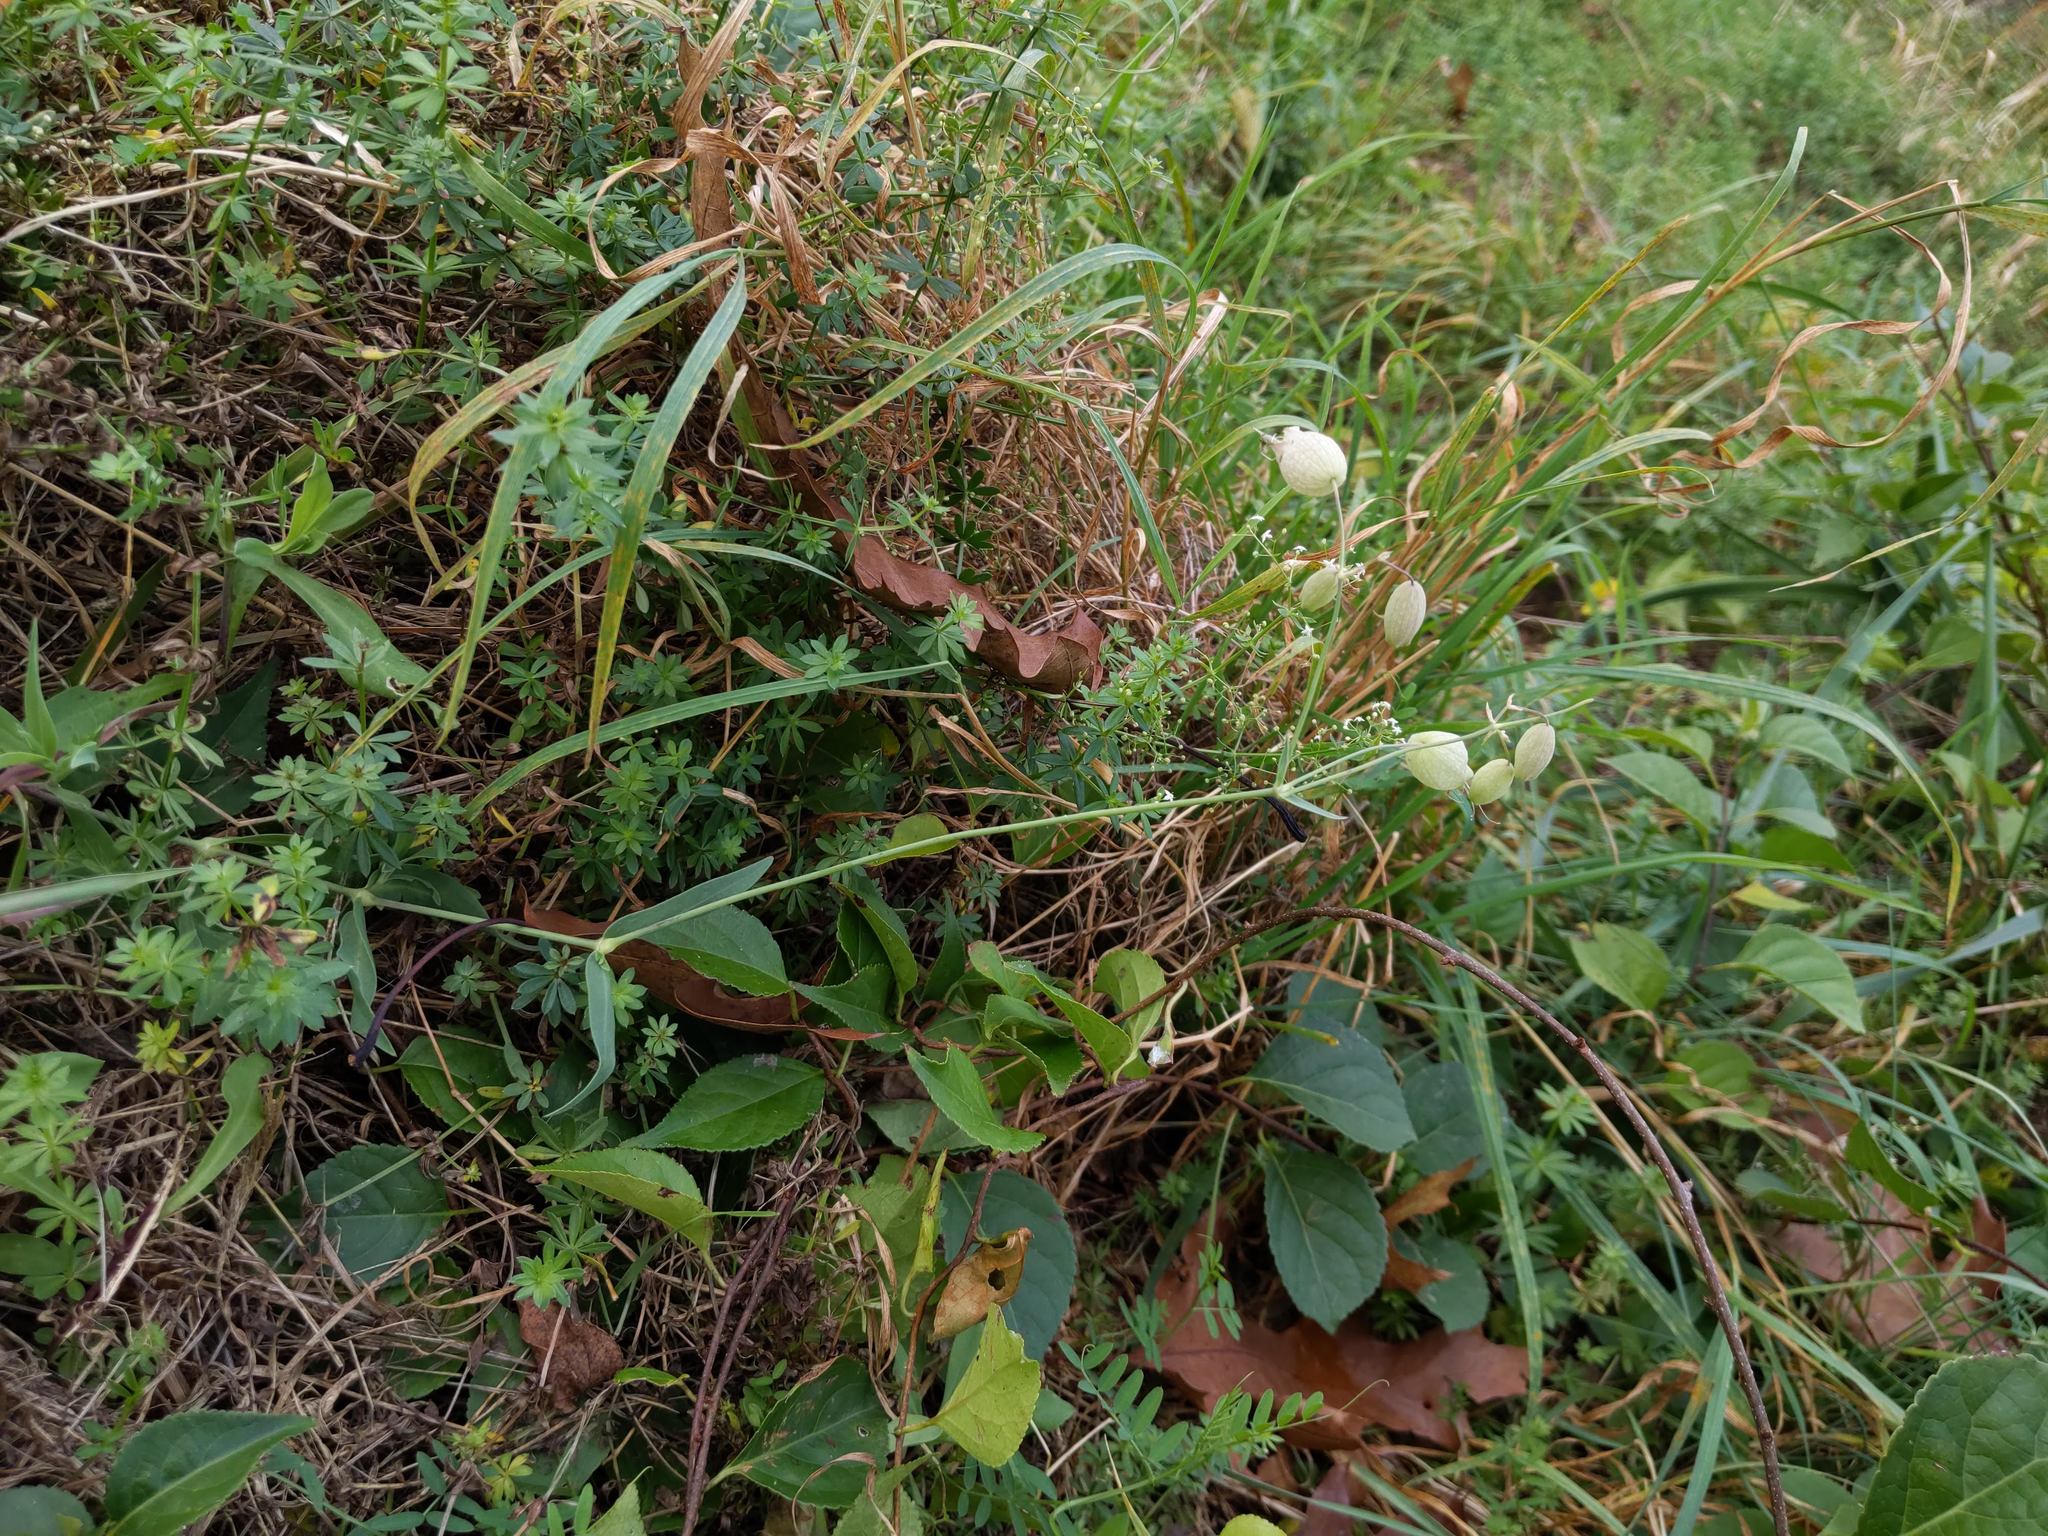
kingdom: Plantae
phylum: Tracheophyta
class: Magnoliopsida
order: Caryophyllales
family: Caryophyllaceae
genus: Silene
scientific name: Silene vulgaris
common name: Bladder campion
